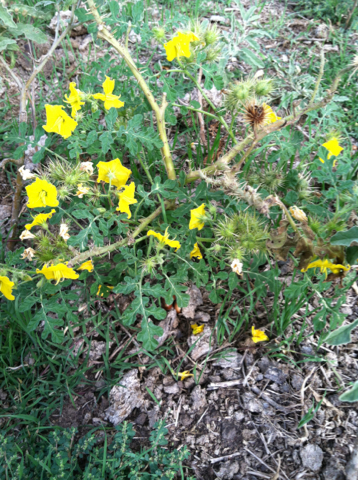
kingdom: Plantae
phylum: Tracheophyta
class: Magnoliopsida
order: Solanales
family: Solanaceae
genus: Solanum
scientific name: Solanum angustifolium
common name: Buffalobur nightshade
